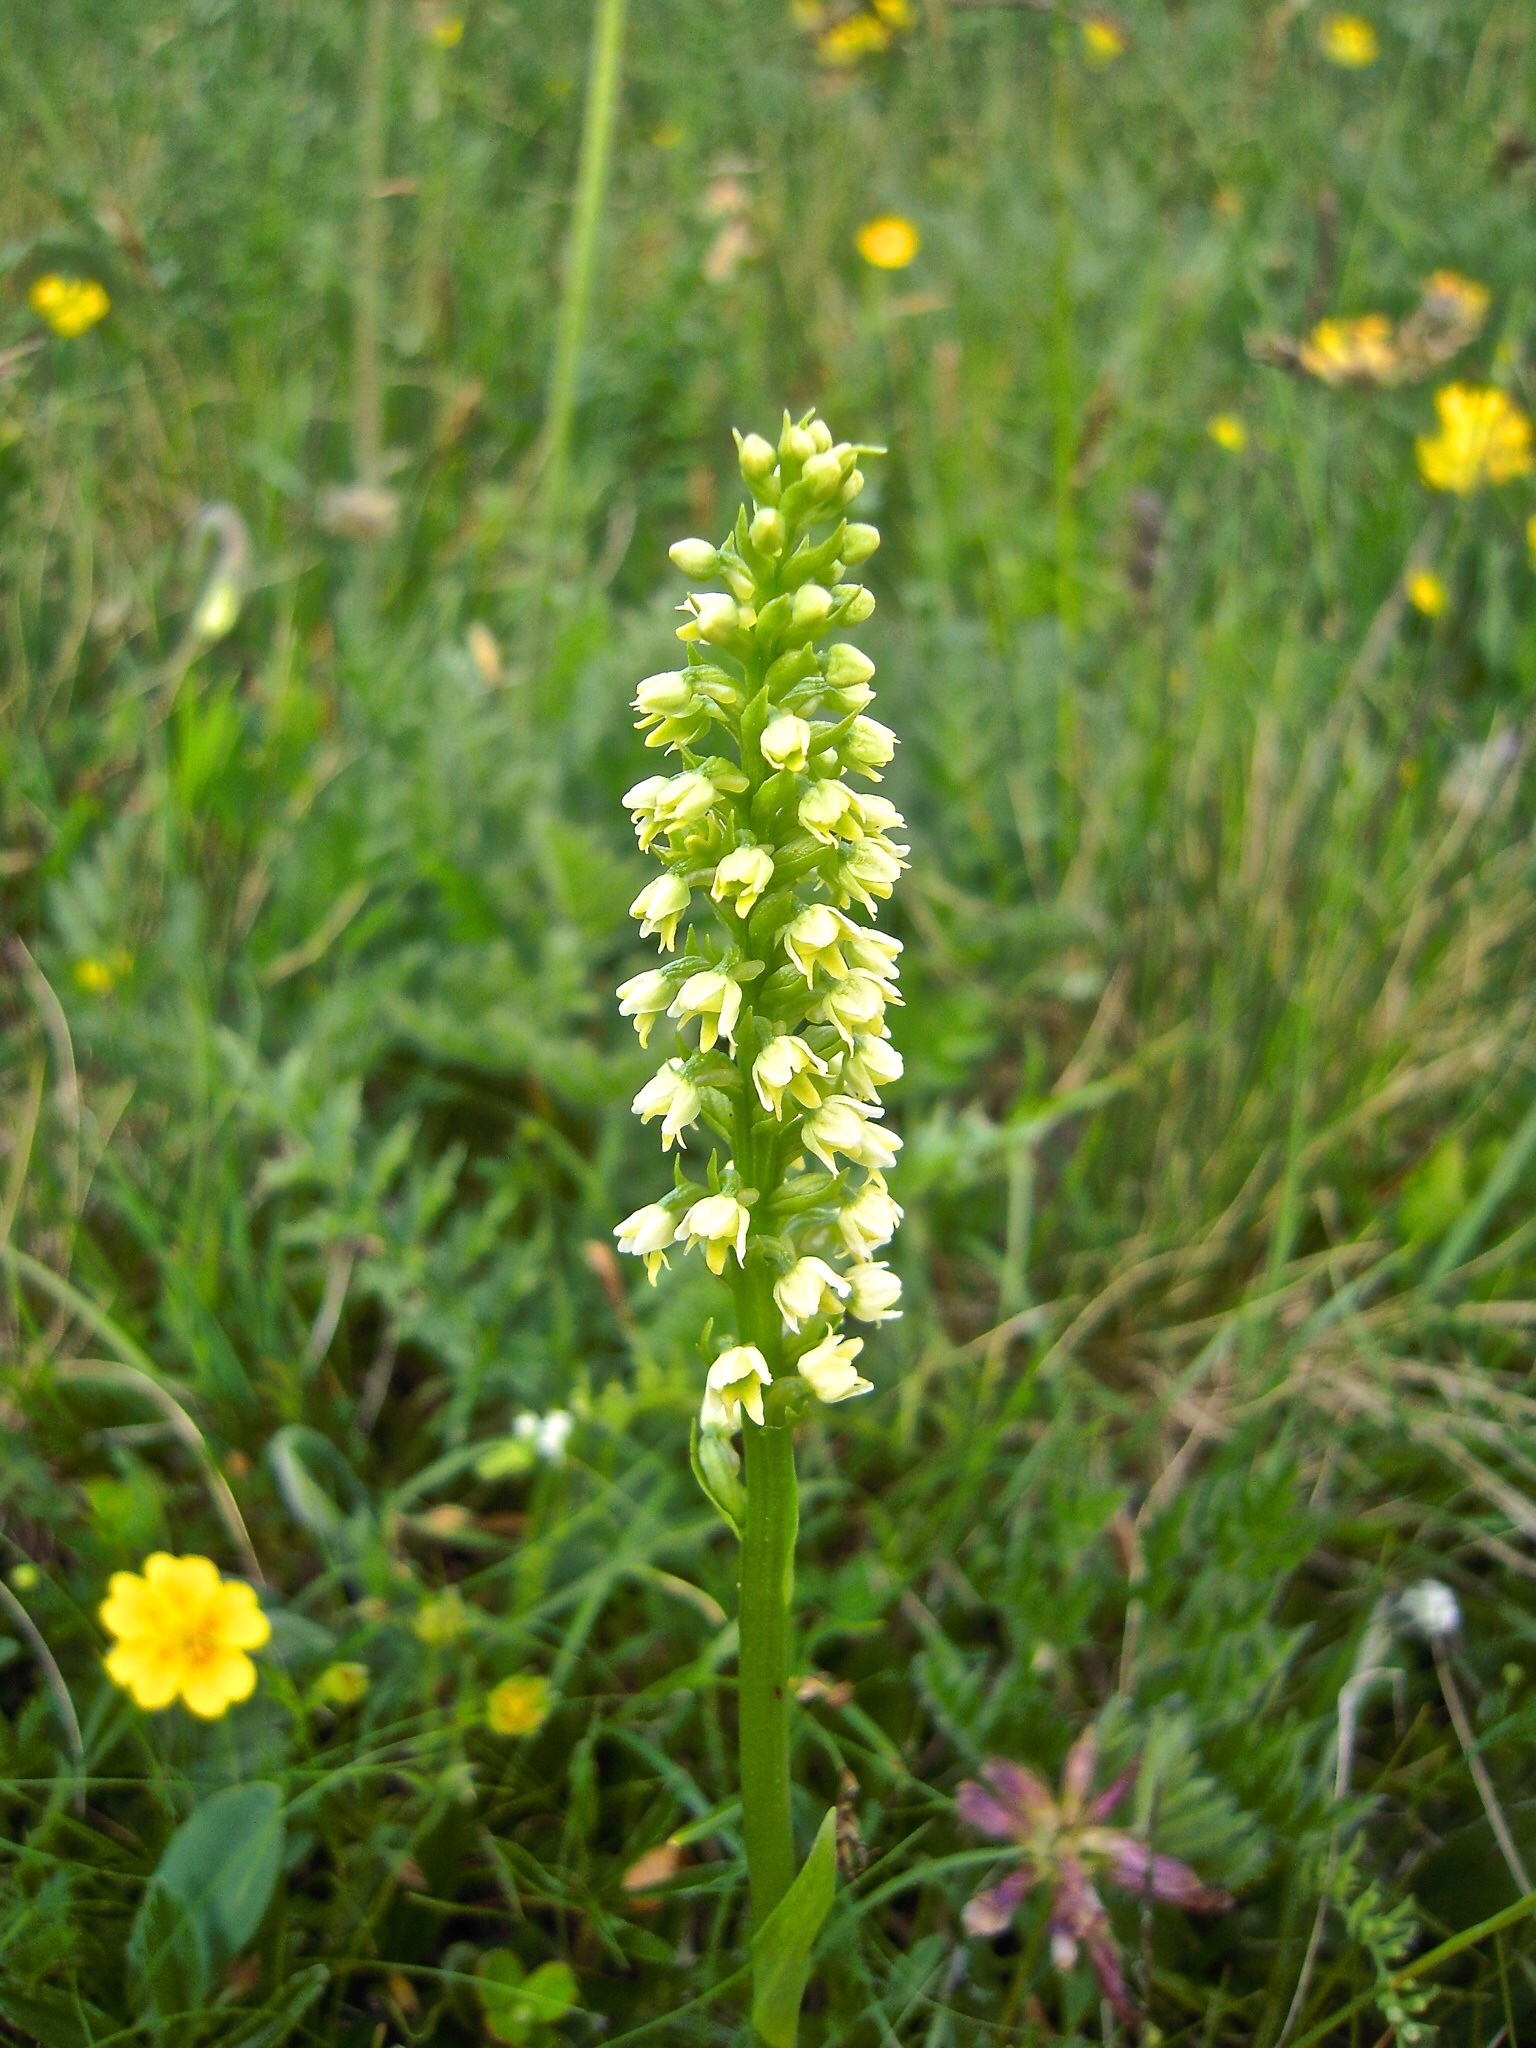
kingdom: Plantae
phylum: Tracheophyta
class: Liliopsida
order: Asparagales
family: Orchidaceae
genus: Pseudorchis
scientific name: Pseudorchis albida
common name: Small-white orchid
